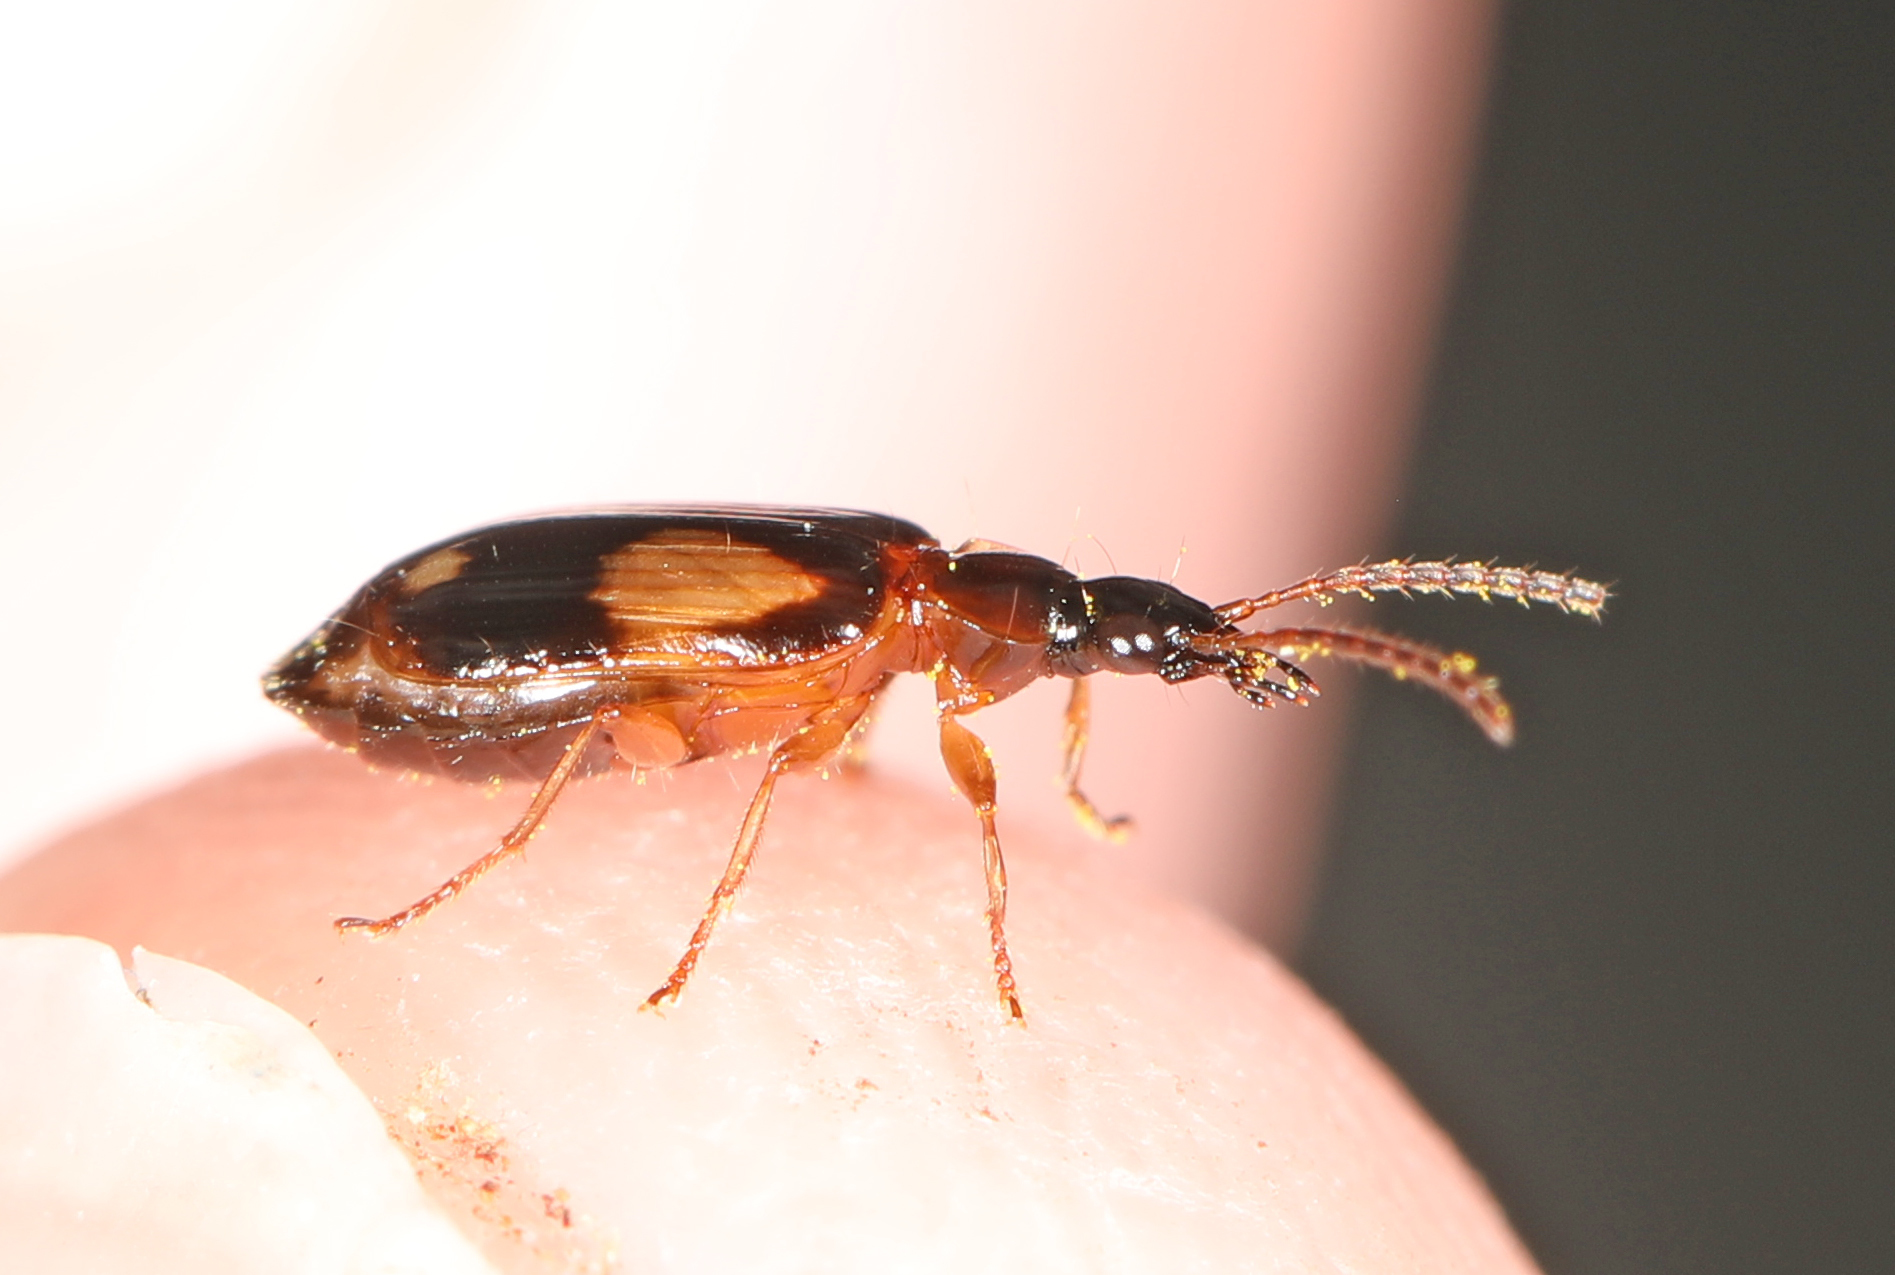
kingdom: Animalia
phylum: Arthropoda
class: Insecta
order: Coleoptera
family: Carabidae
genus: Lebia
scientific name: Lebia ornata
